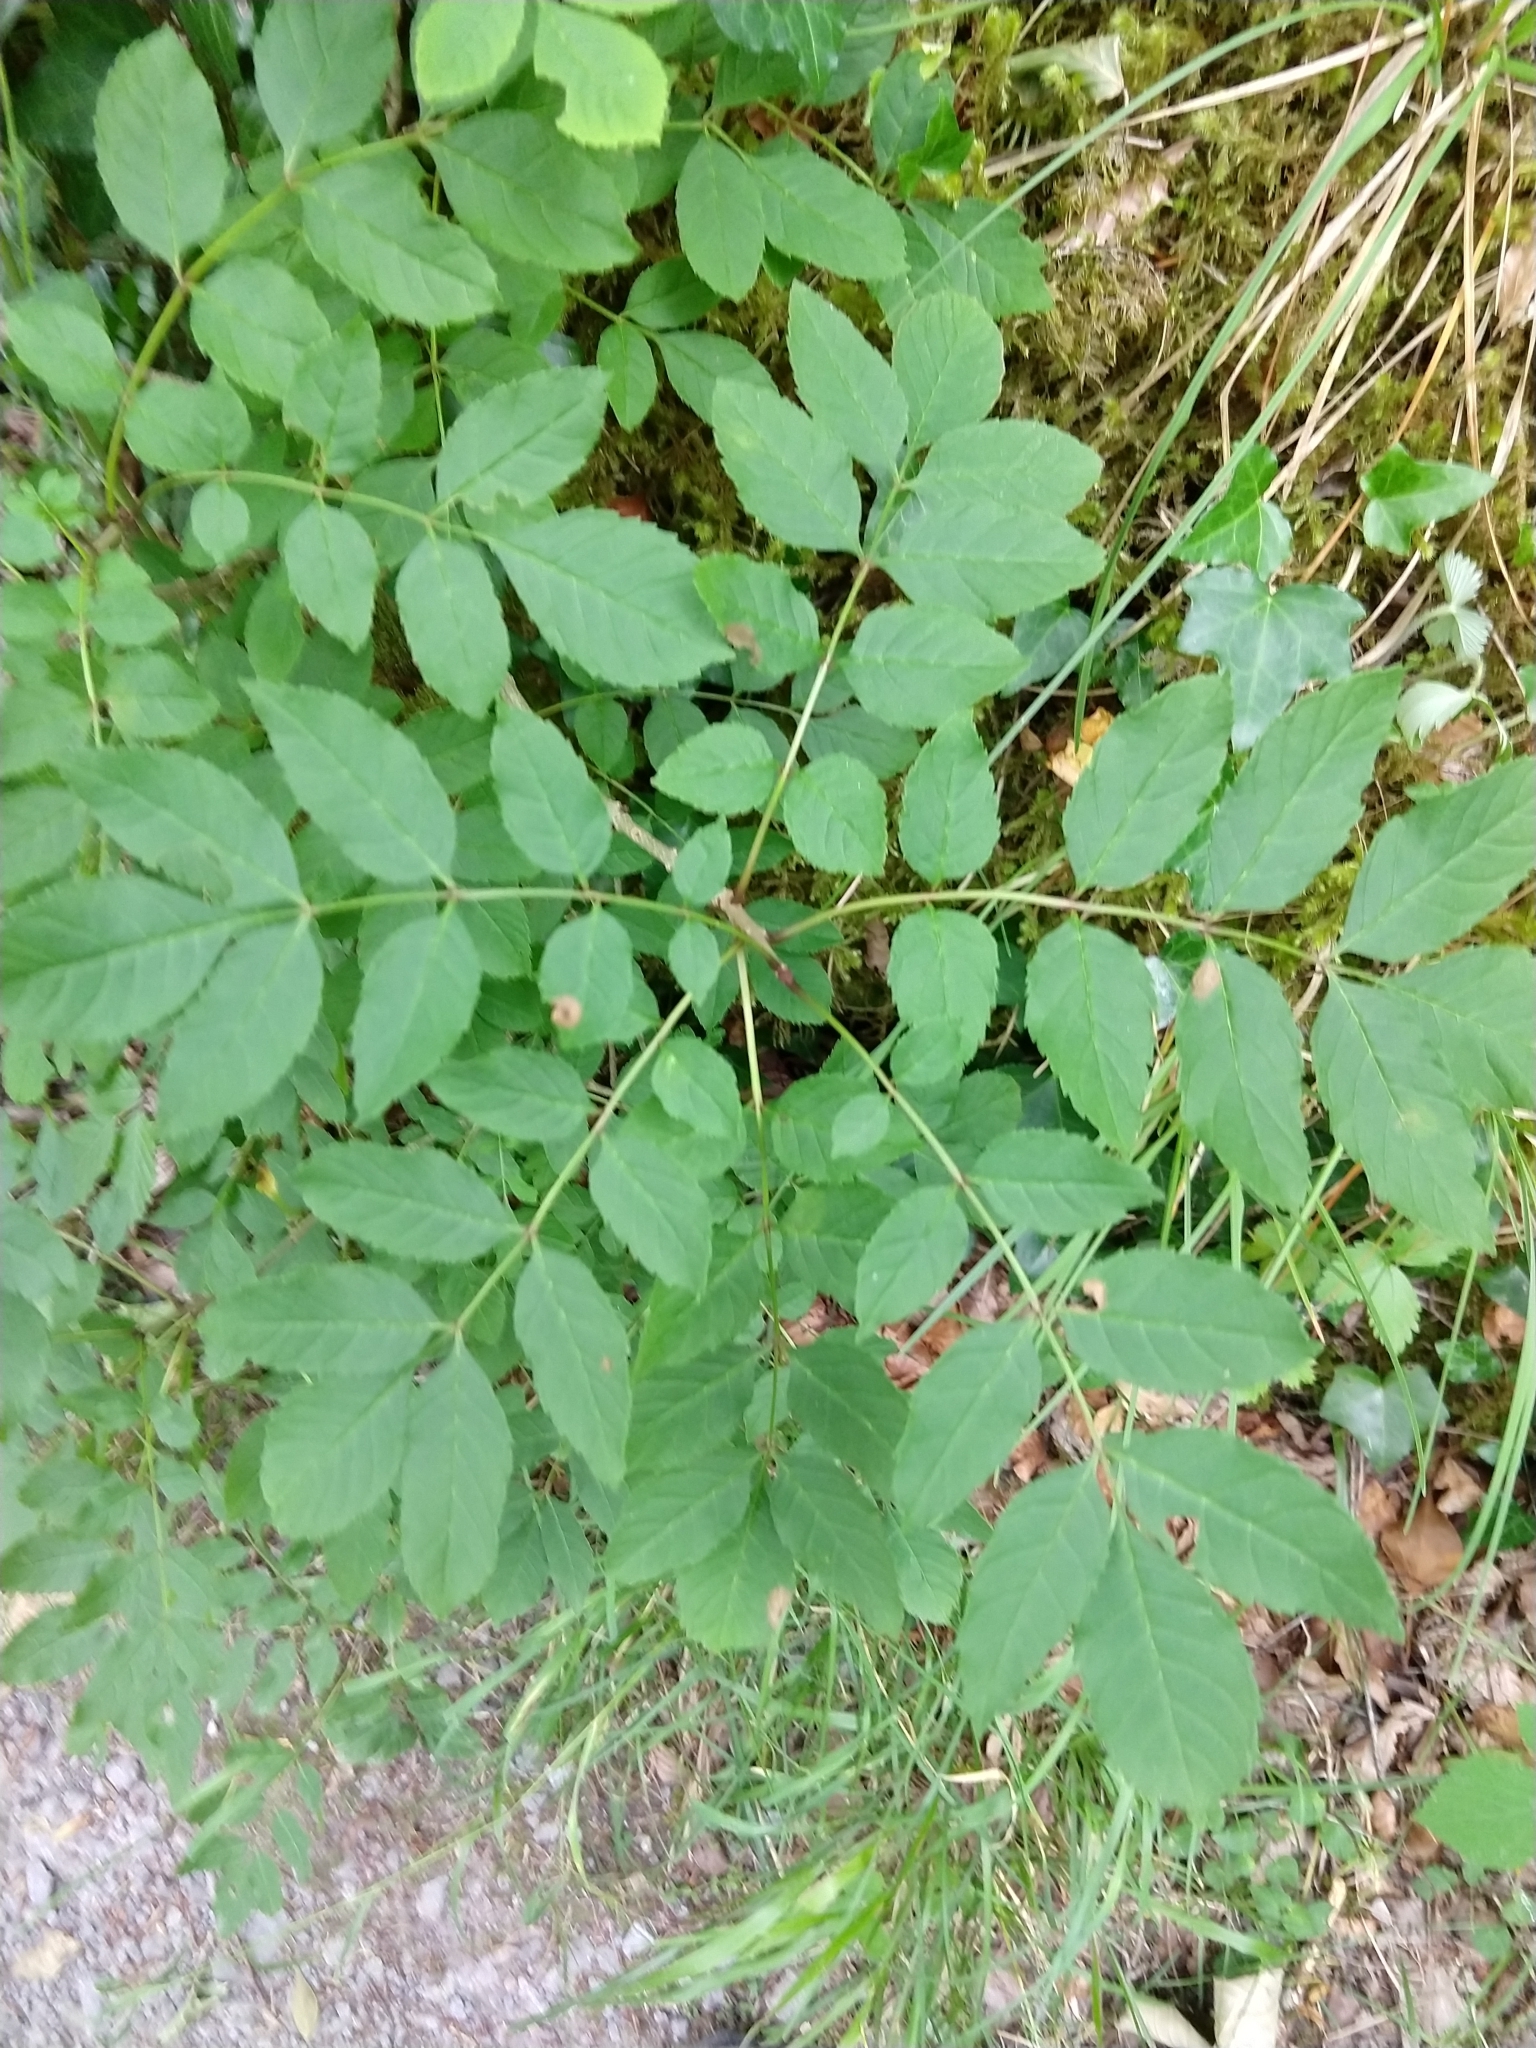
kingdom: Plantae
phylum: Tracheophyta
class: Magnoliopsida
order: Lamiales
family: Oleaceae
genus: Fraxinus
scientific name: Fraxinus excelsior
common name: European ash
